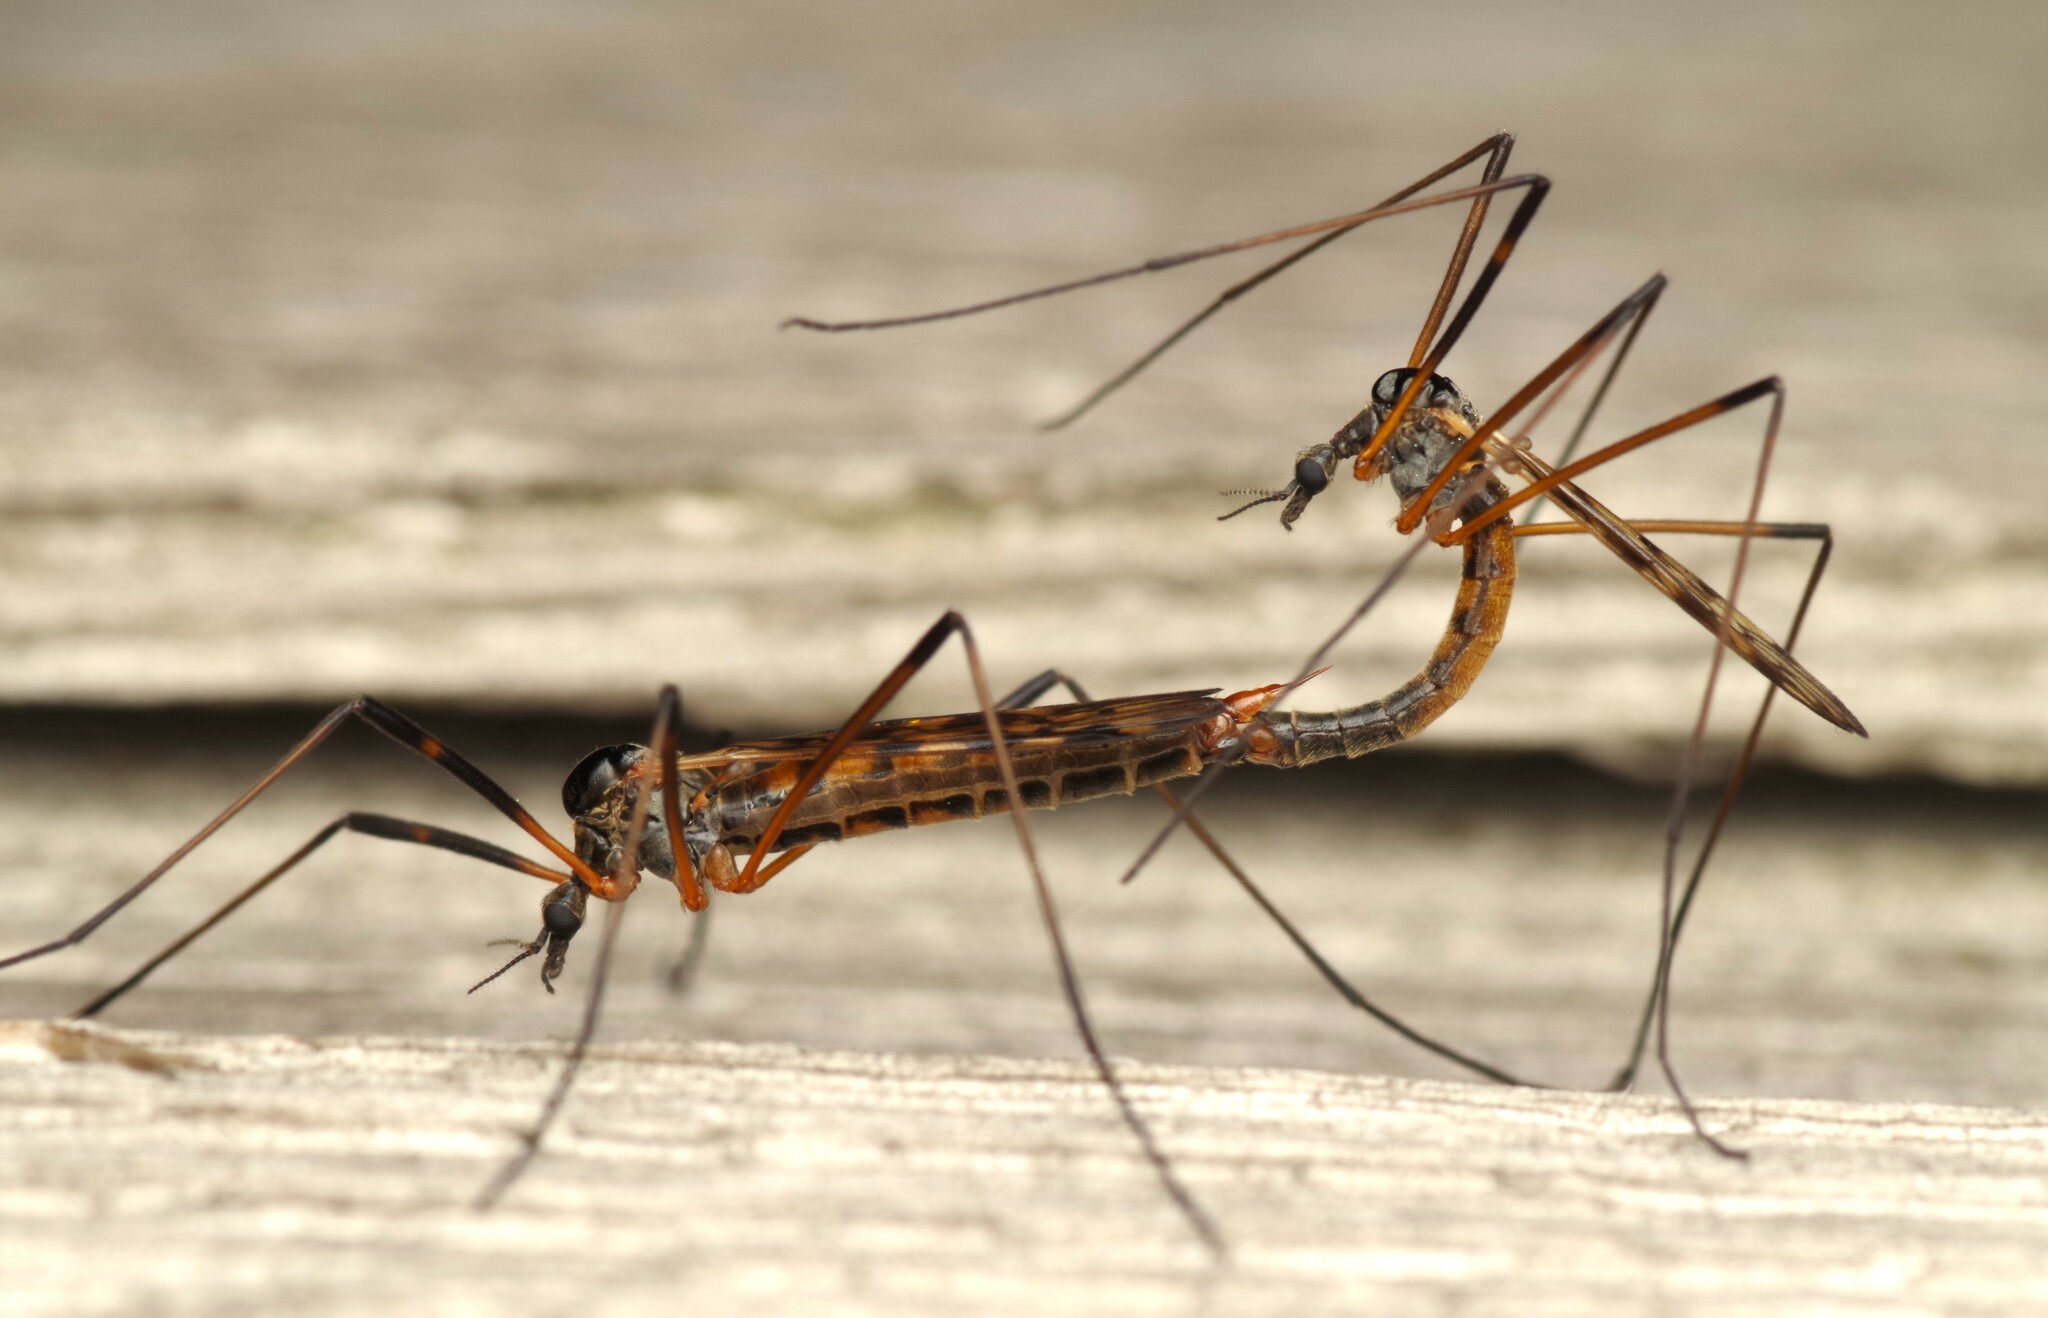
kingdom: Animalia
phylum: Arthropoda
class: Insecta
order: Diptera
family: Limoniidae
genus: Limonia
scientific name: Limonia maculipennis
